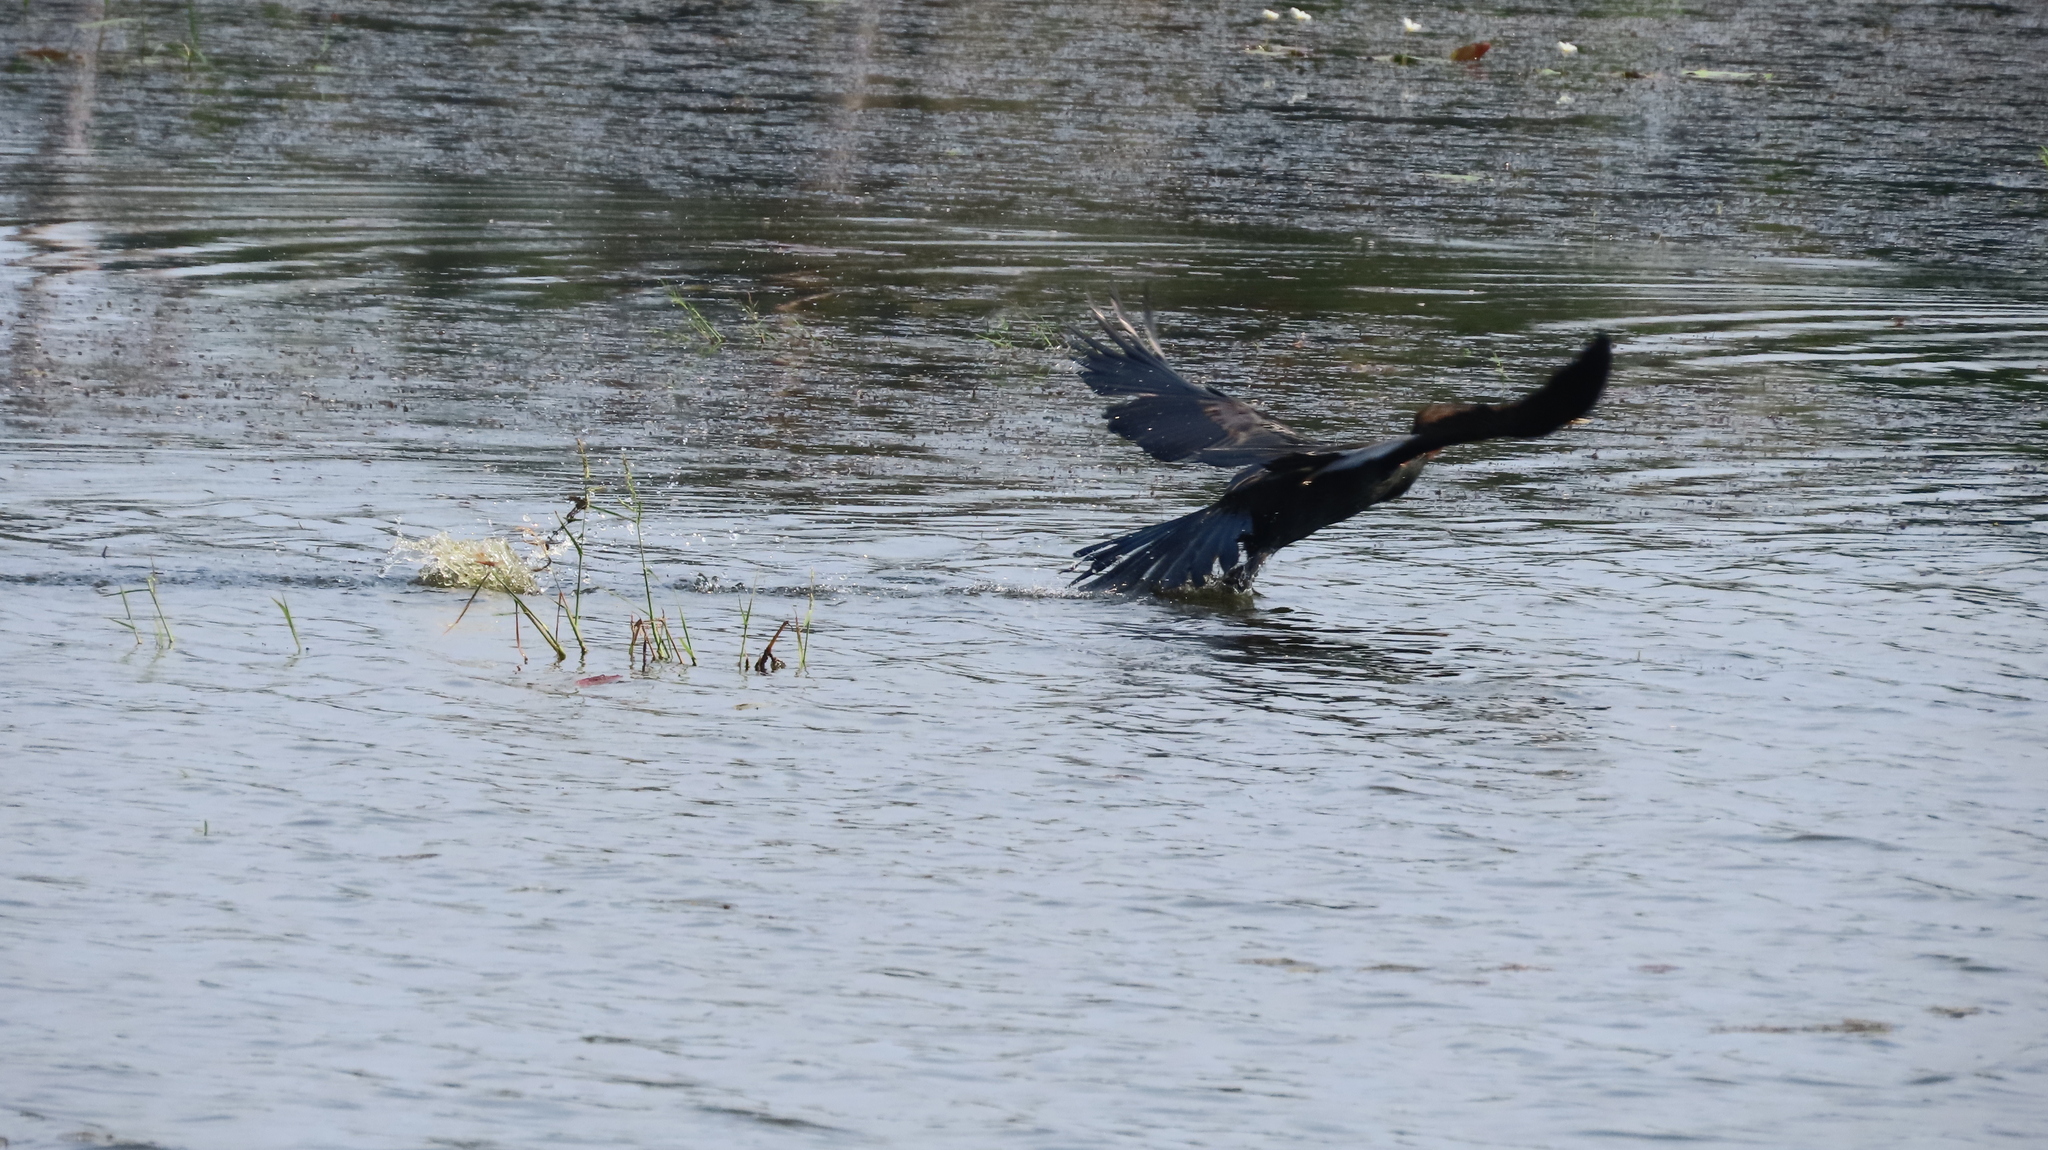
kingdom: Animalia
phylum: Chordata
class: Aves
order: Suliformes
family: Anhingidae
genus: Anhinga
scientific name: Anhinga melanogaster
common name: Oriental darter
